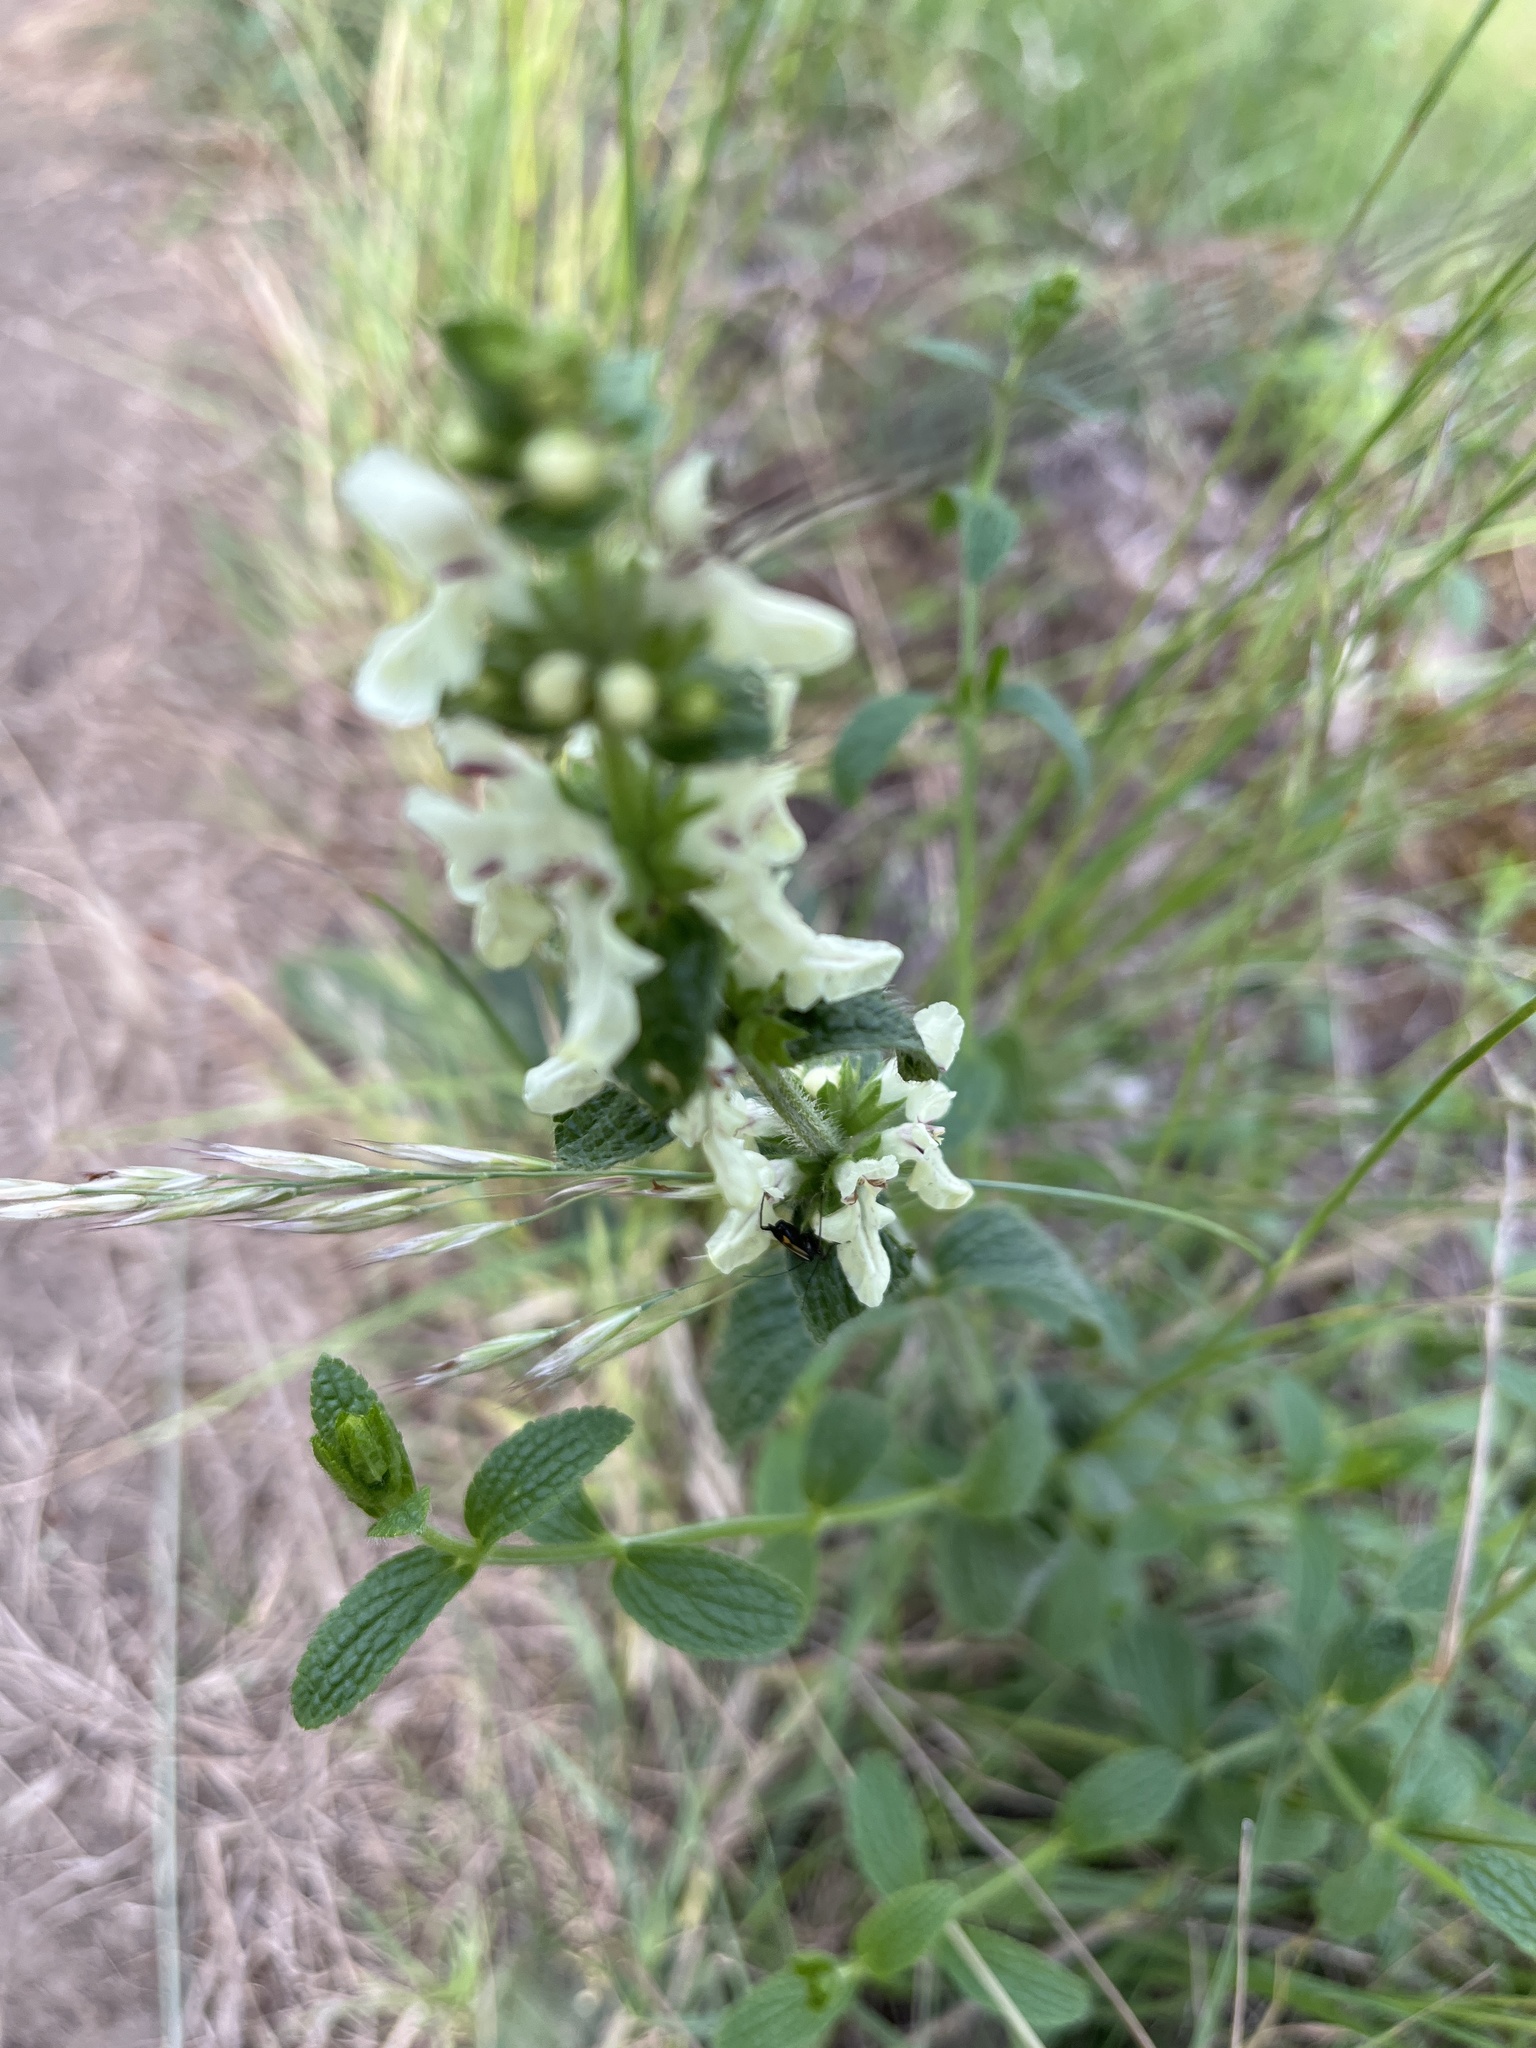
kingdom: Plantae
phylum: Tracheophyta
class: Magnoliopsida
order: Lamiales
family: Lamiaceae
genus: Stachys
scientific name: Stachys recta
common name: Perennial yellow-woundwort
